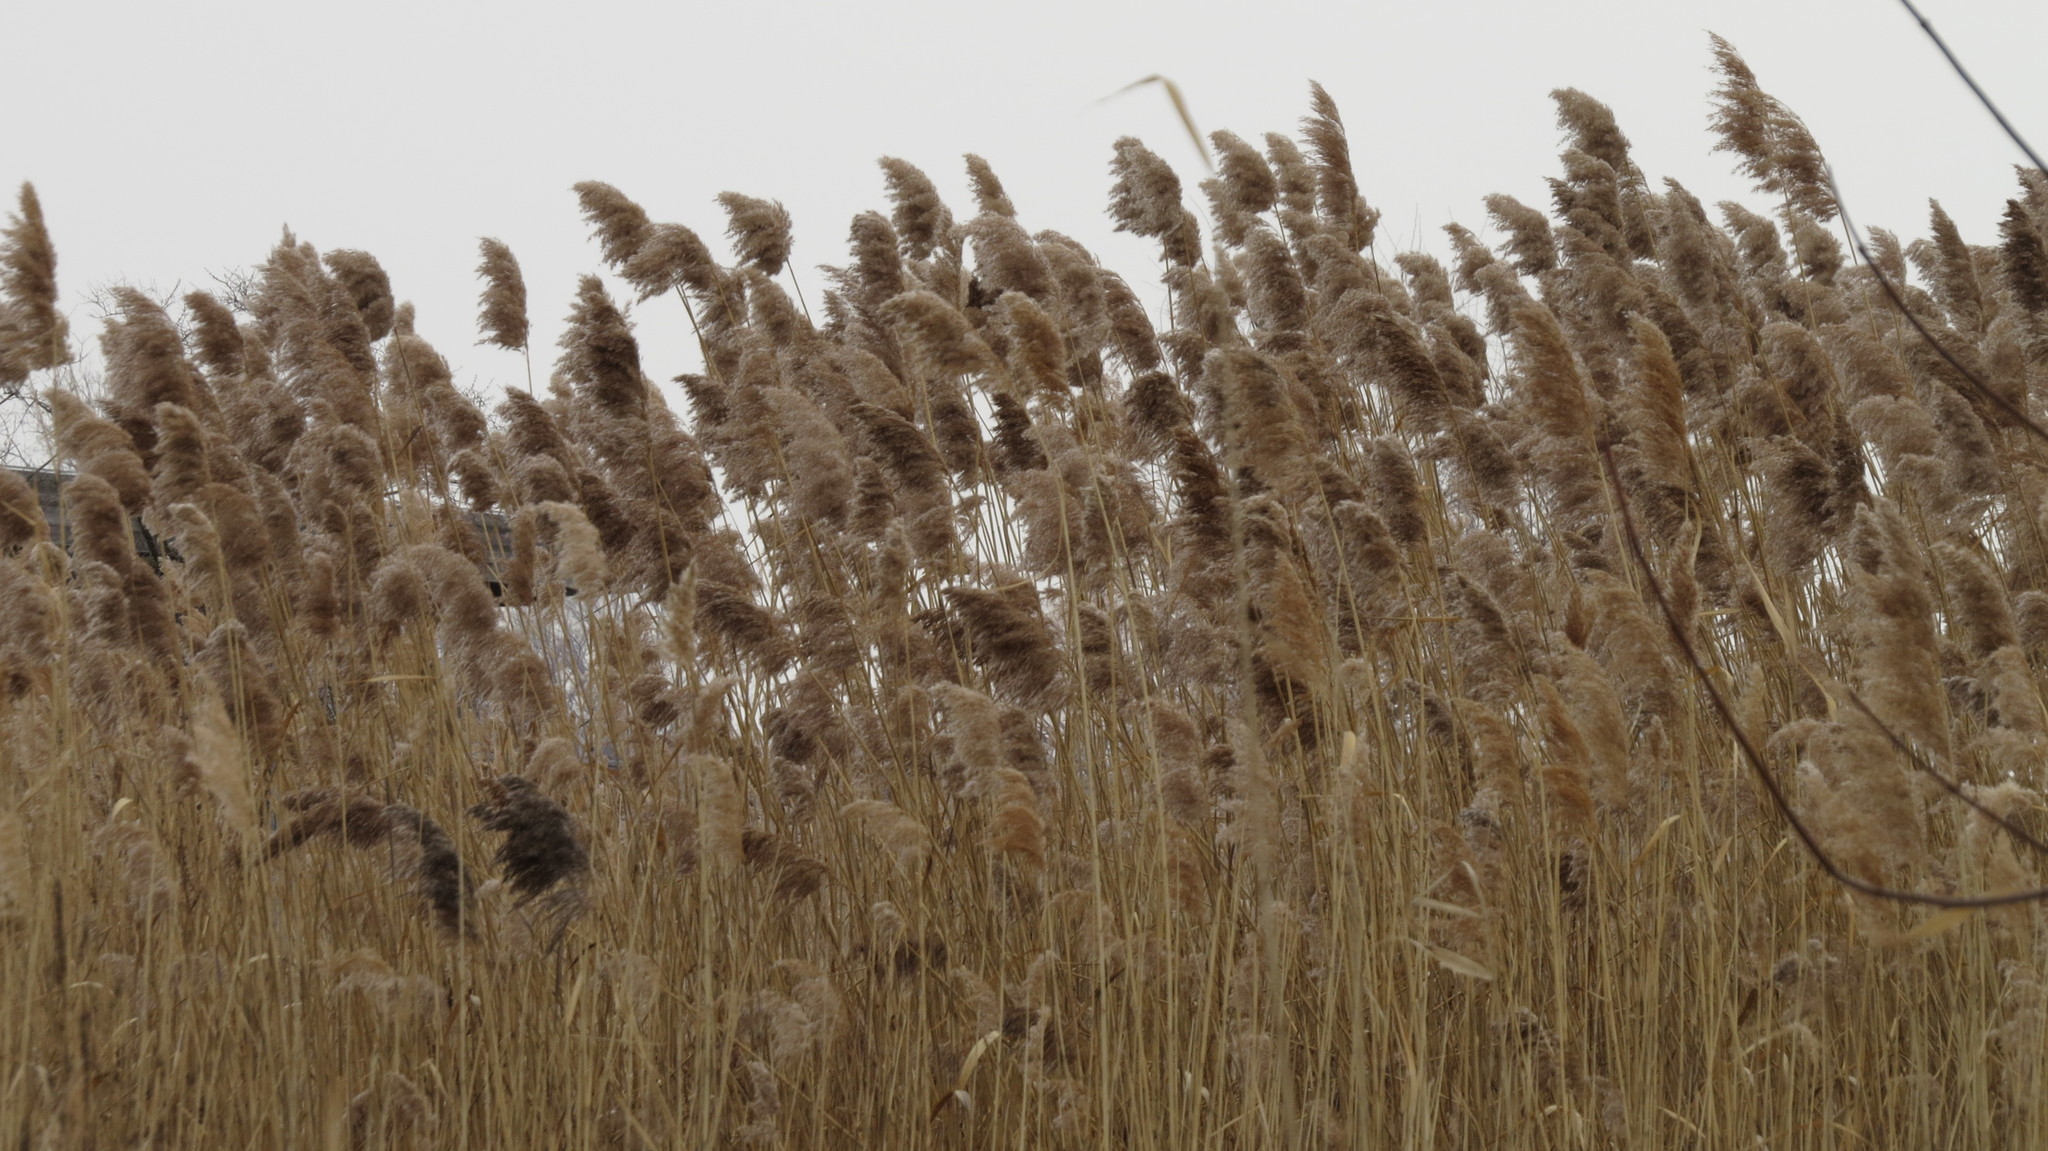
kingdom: Plantae
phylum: Tracheophyta
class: Liliopsida
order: Poales
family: Poaceae
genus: Phragmites
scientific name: Phragmites australis
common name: Common reed
